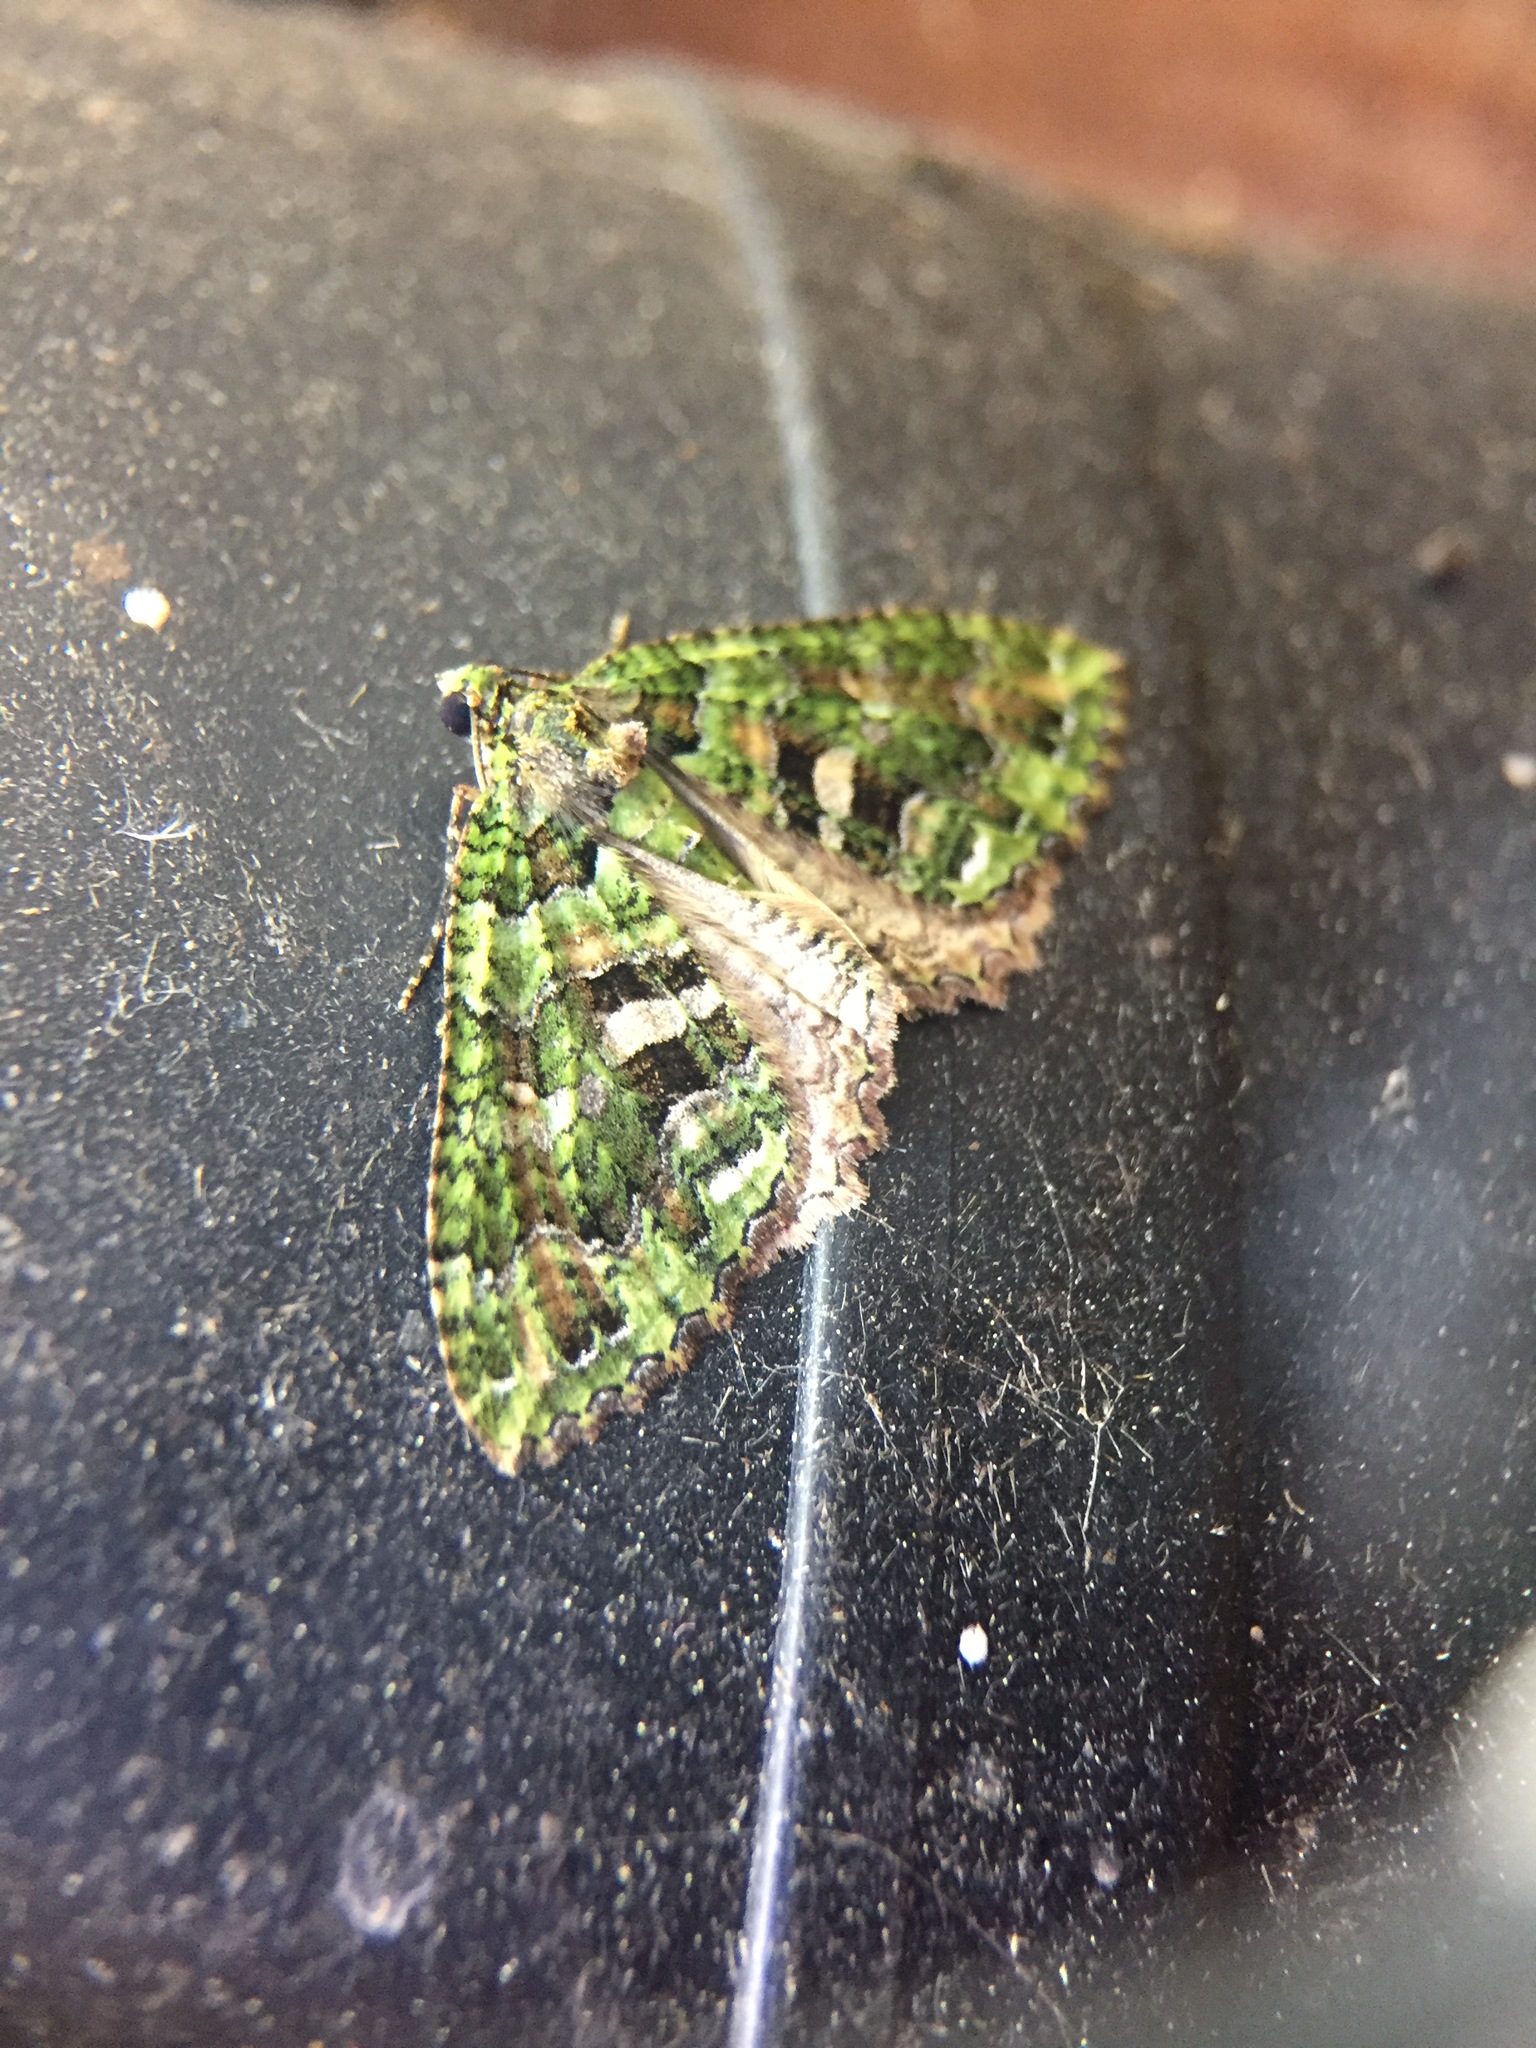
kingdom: Animalia
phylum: Arthropoda
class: Insecta
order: Lepidoptera
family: Geometridae
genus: Austrocidaria
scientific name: Austrocidaria similata
